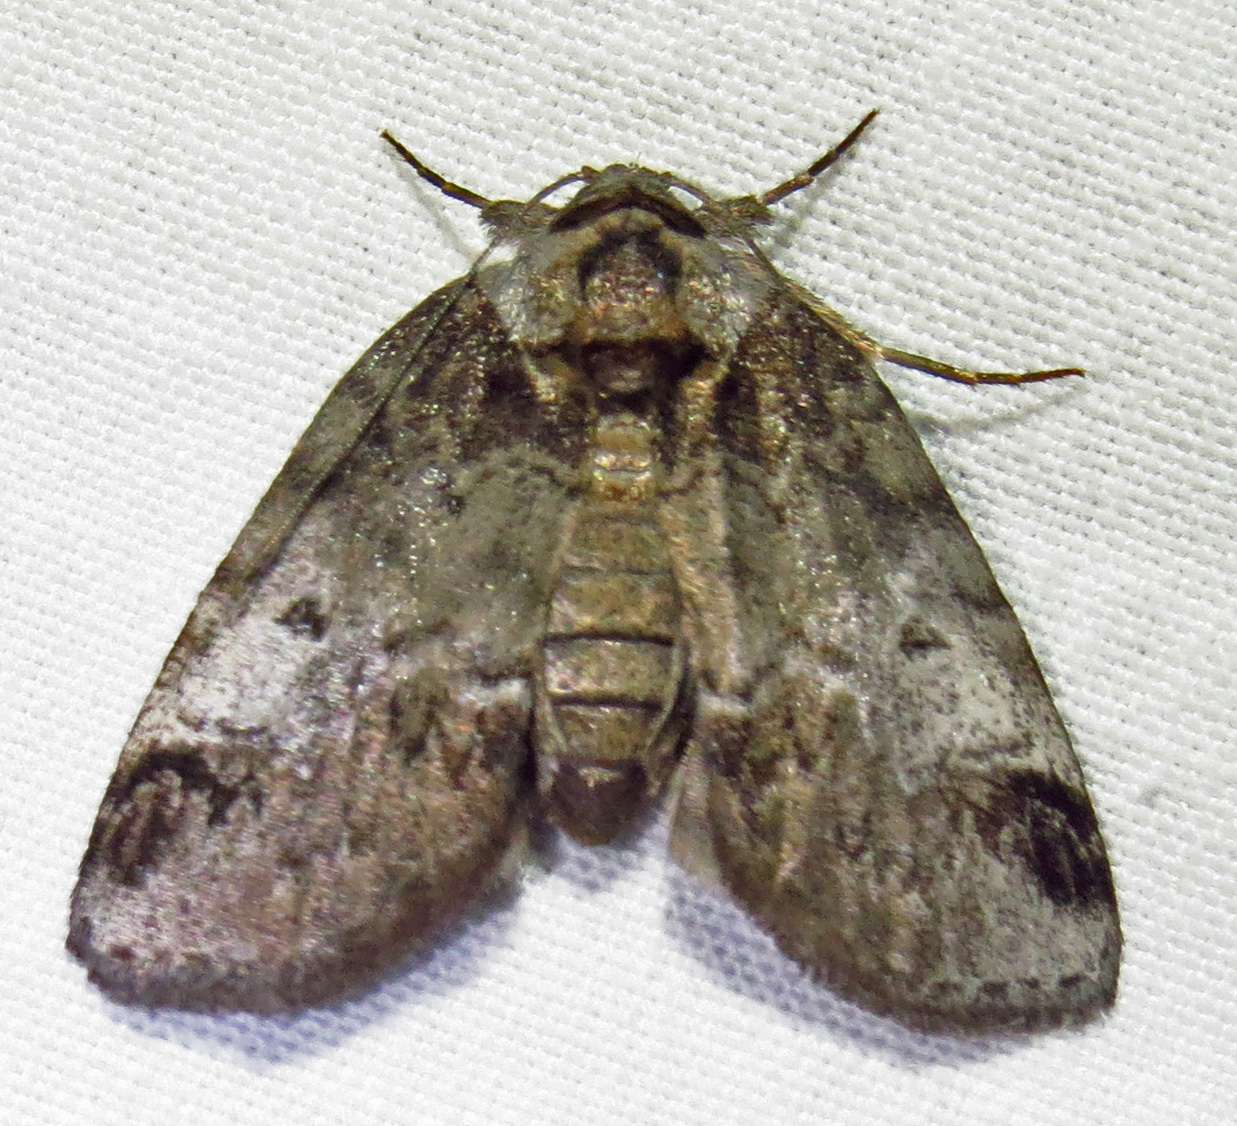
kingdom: Animalia
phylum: Arthropoda
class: Insecta
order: Lepidoptera
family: Nolidae
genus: Baileya
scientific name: Baileya dormitans
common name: Sleeping baileya moth
